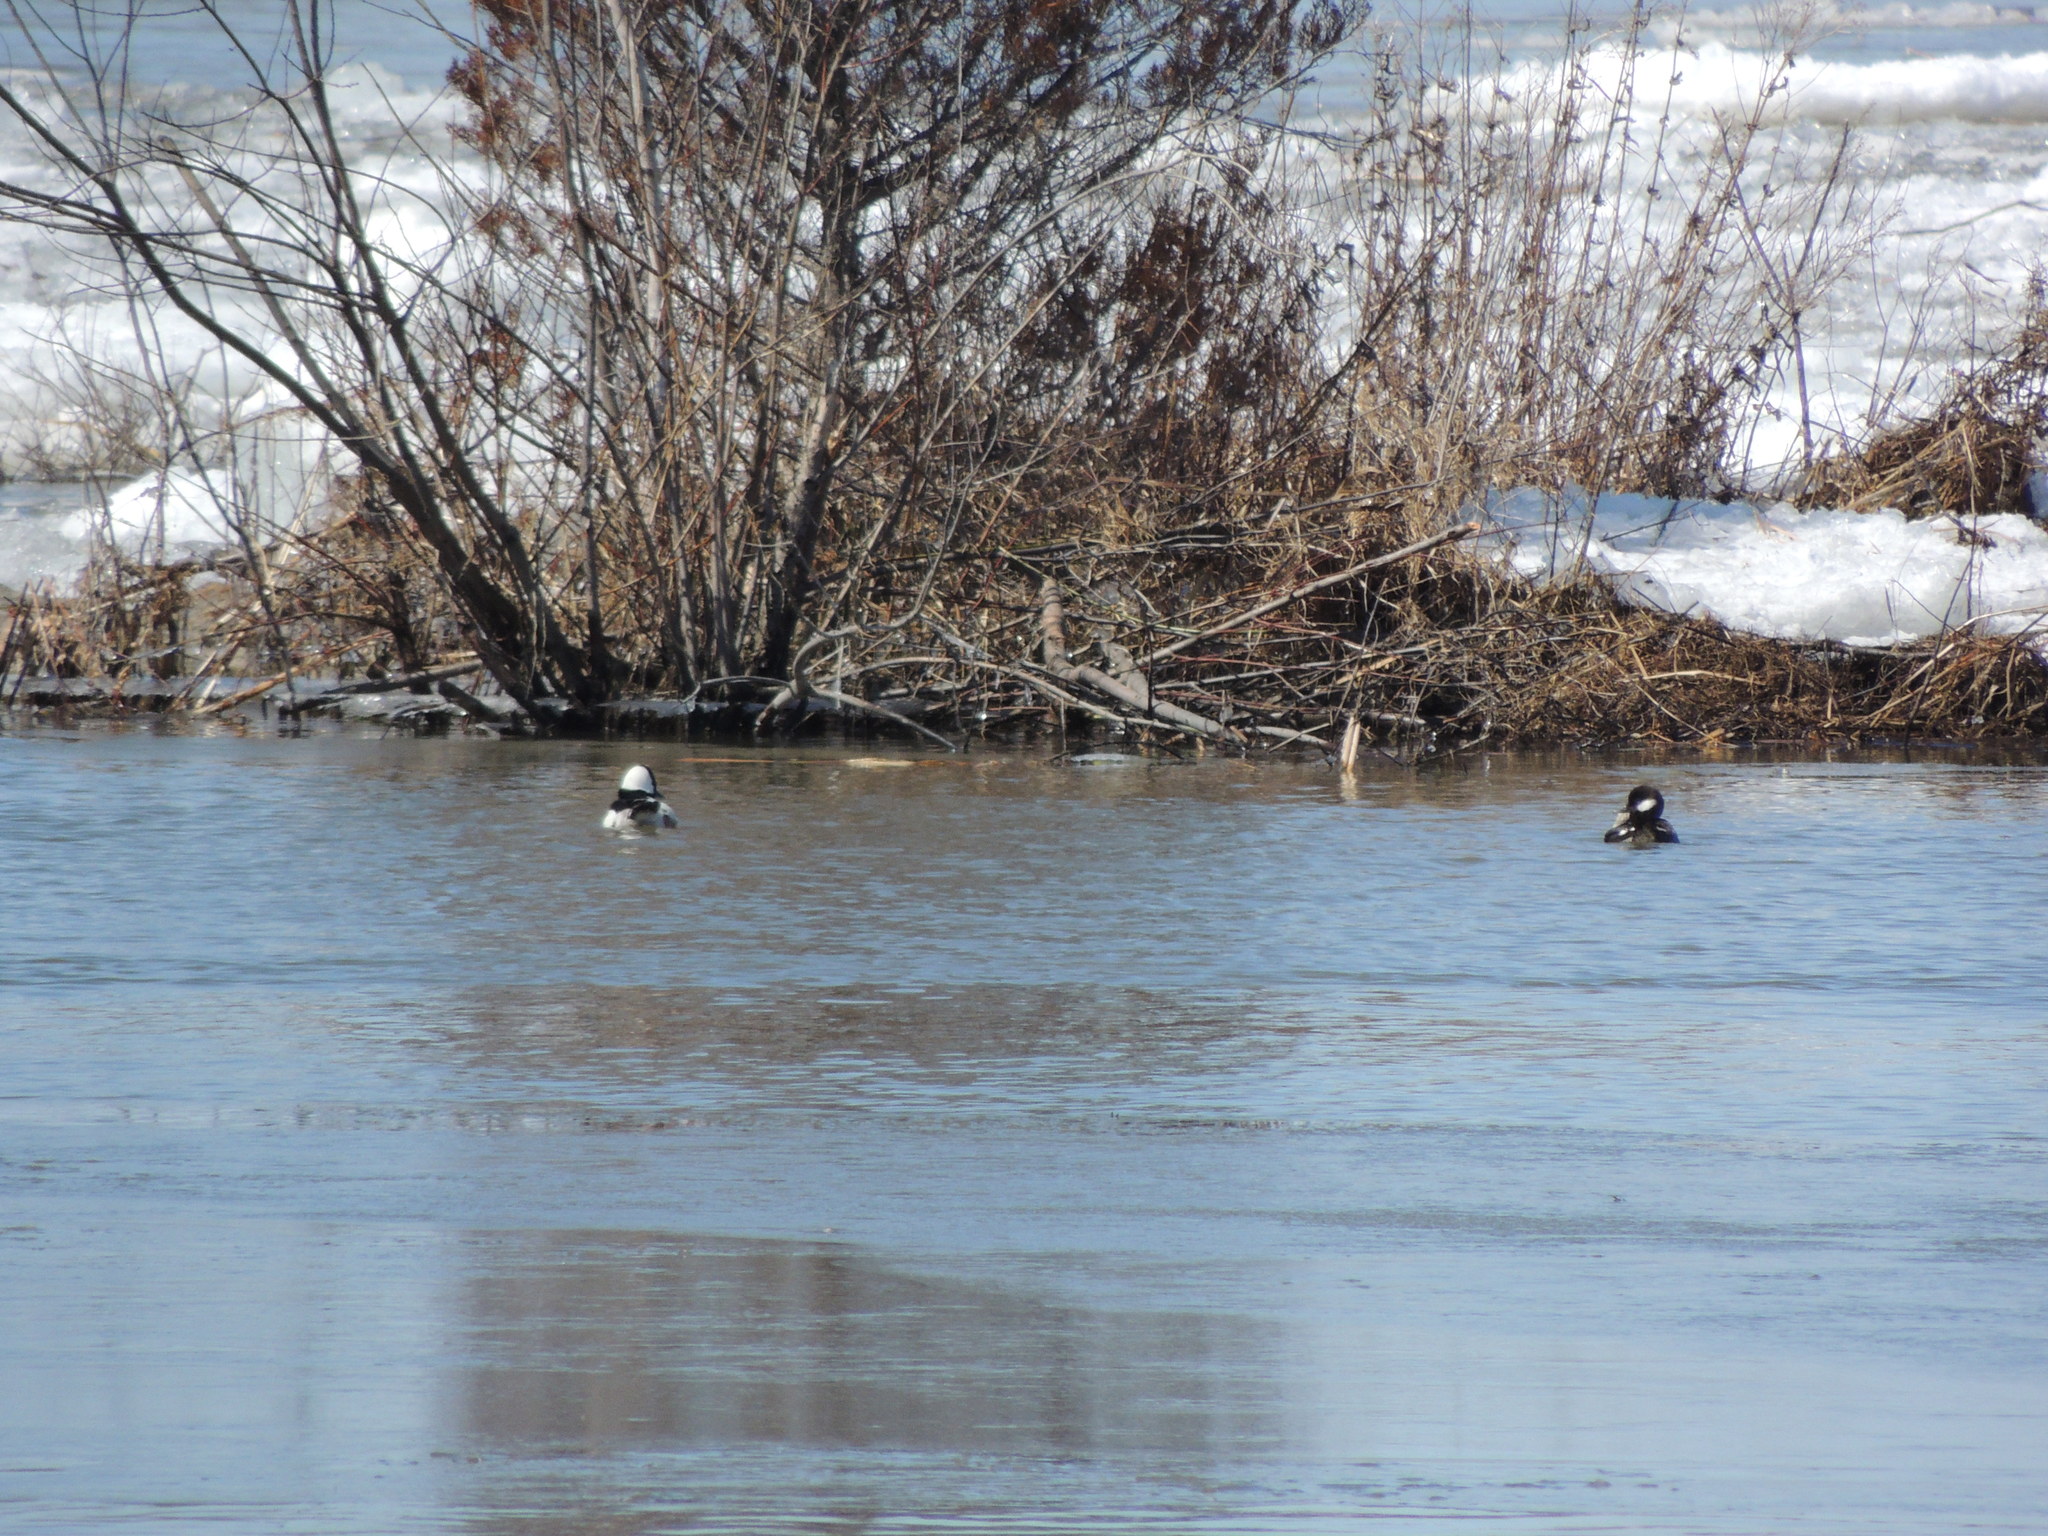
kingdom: Animalia
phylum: Chordata
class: Aves
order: Anseriformes
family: Anatidae
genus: Bucephala
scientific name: Bucephala albeola
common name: Bufflehead
